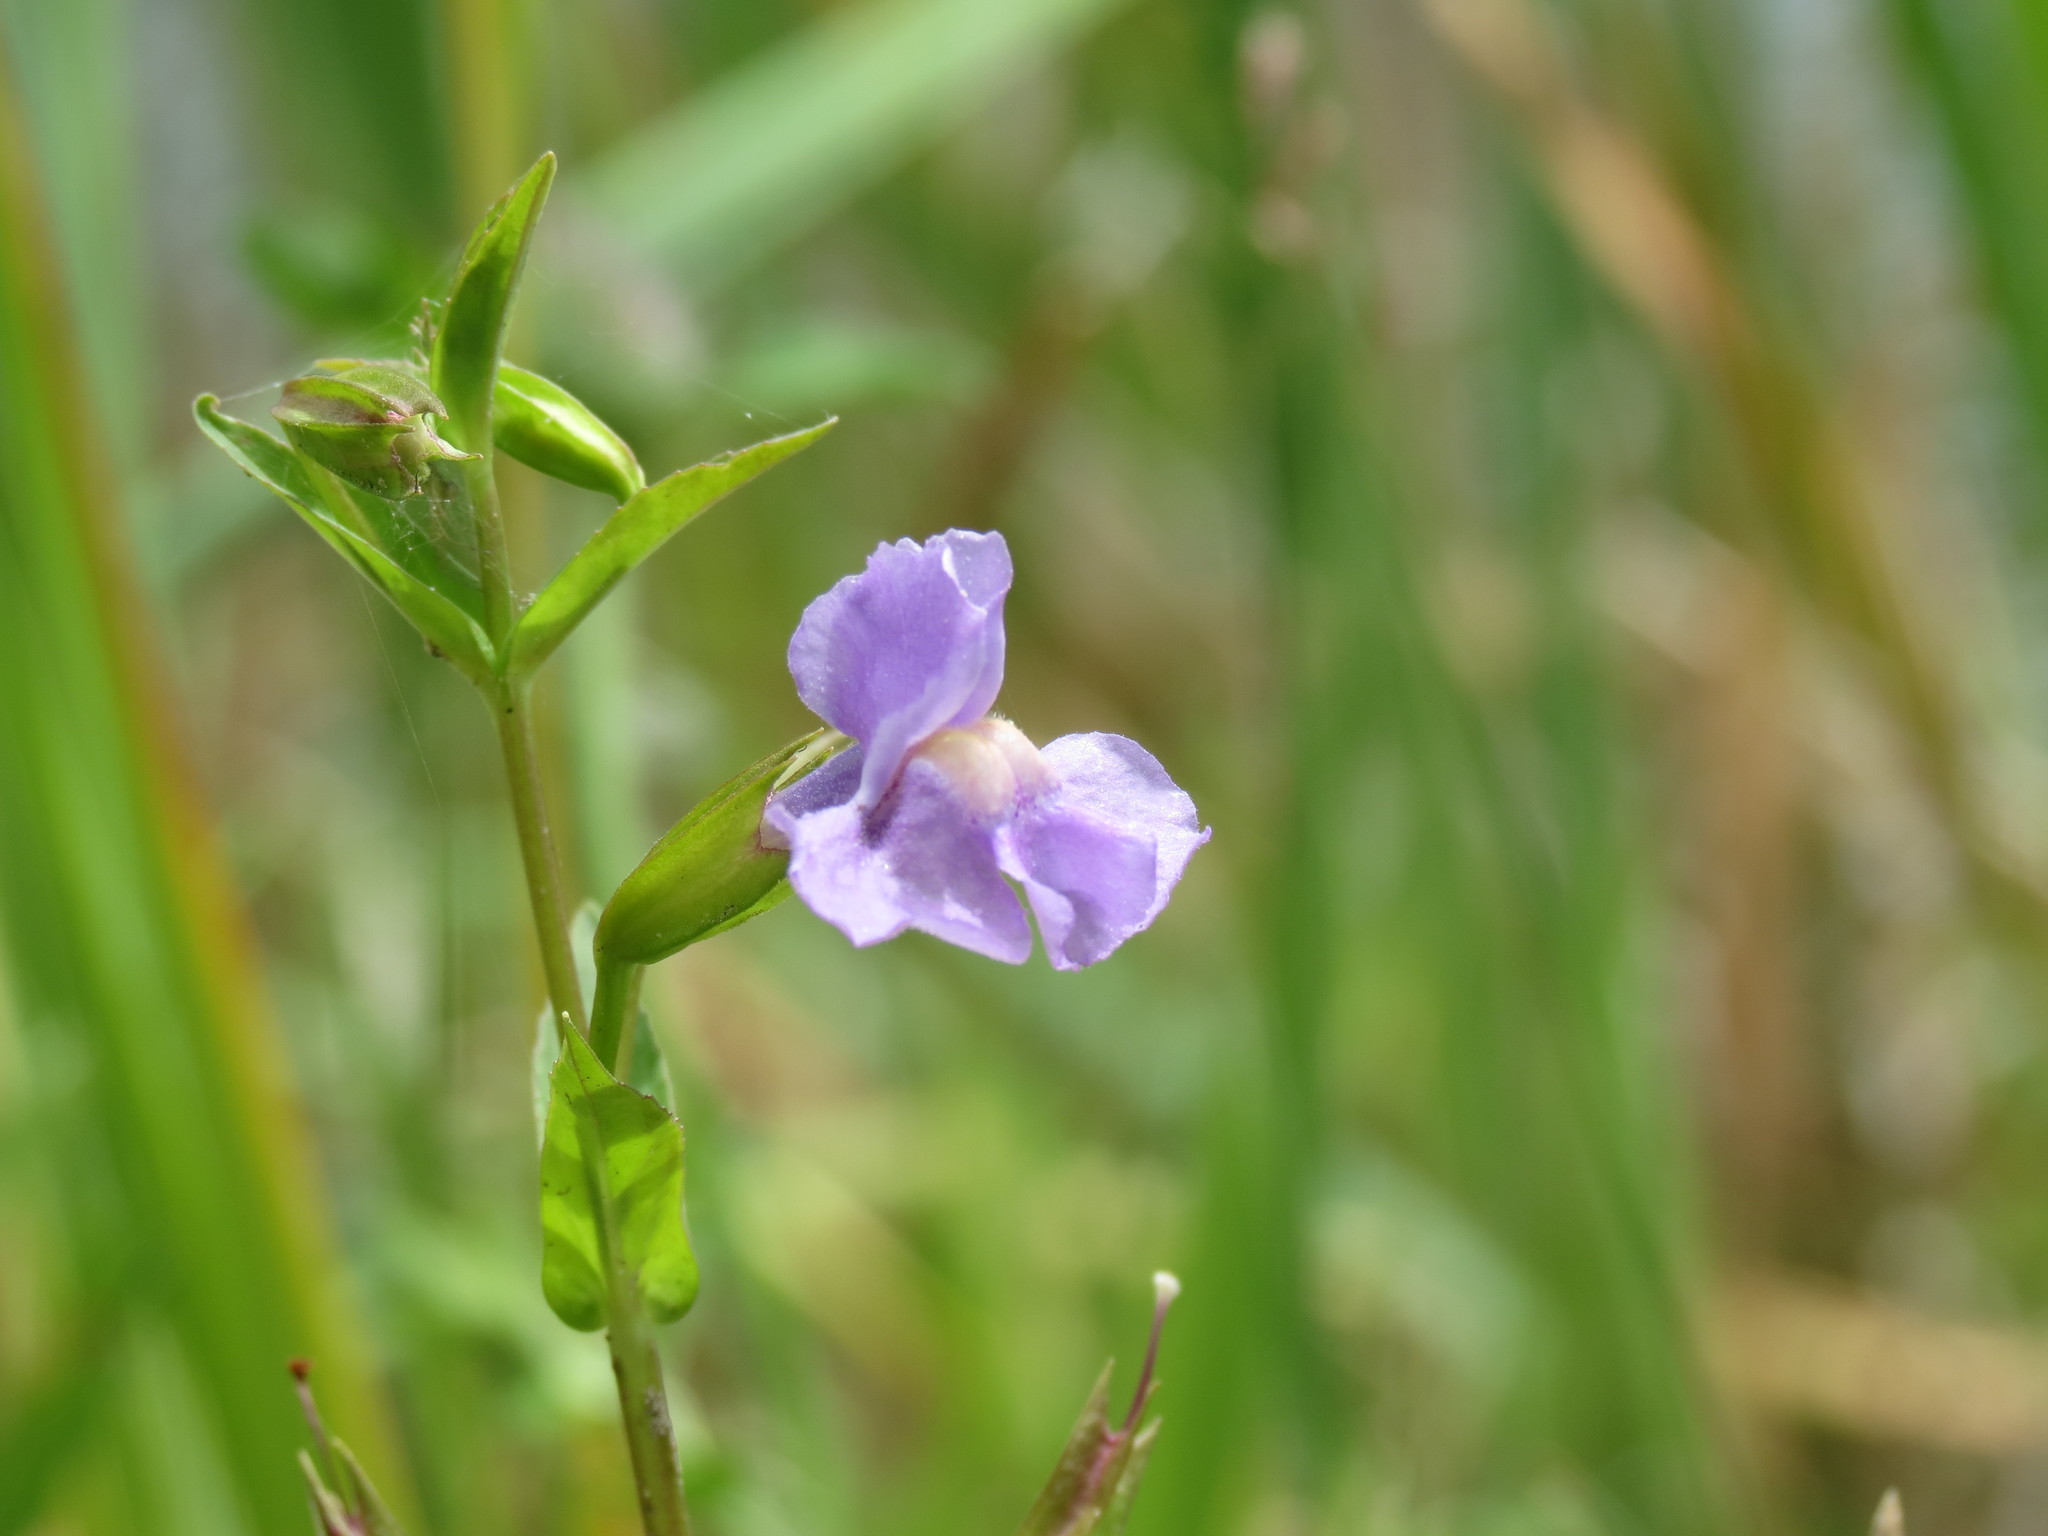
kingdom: Plantae
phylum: Tracheophyta
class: Magnoliopsida
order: Lamiales
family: Phrymaceae
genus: Mimulus
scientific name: Mimulus ringens
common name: Allegheny monkeyflower
